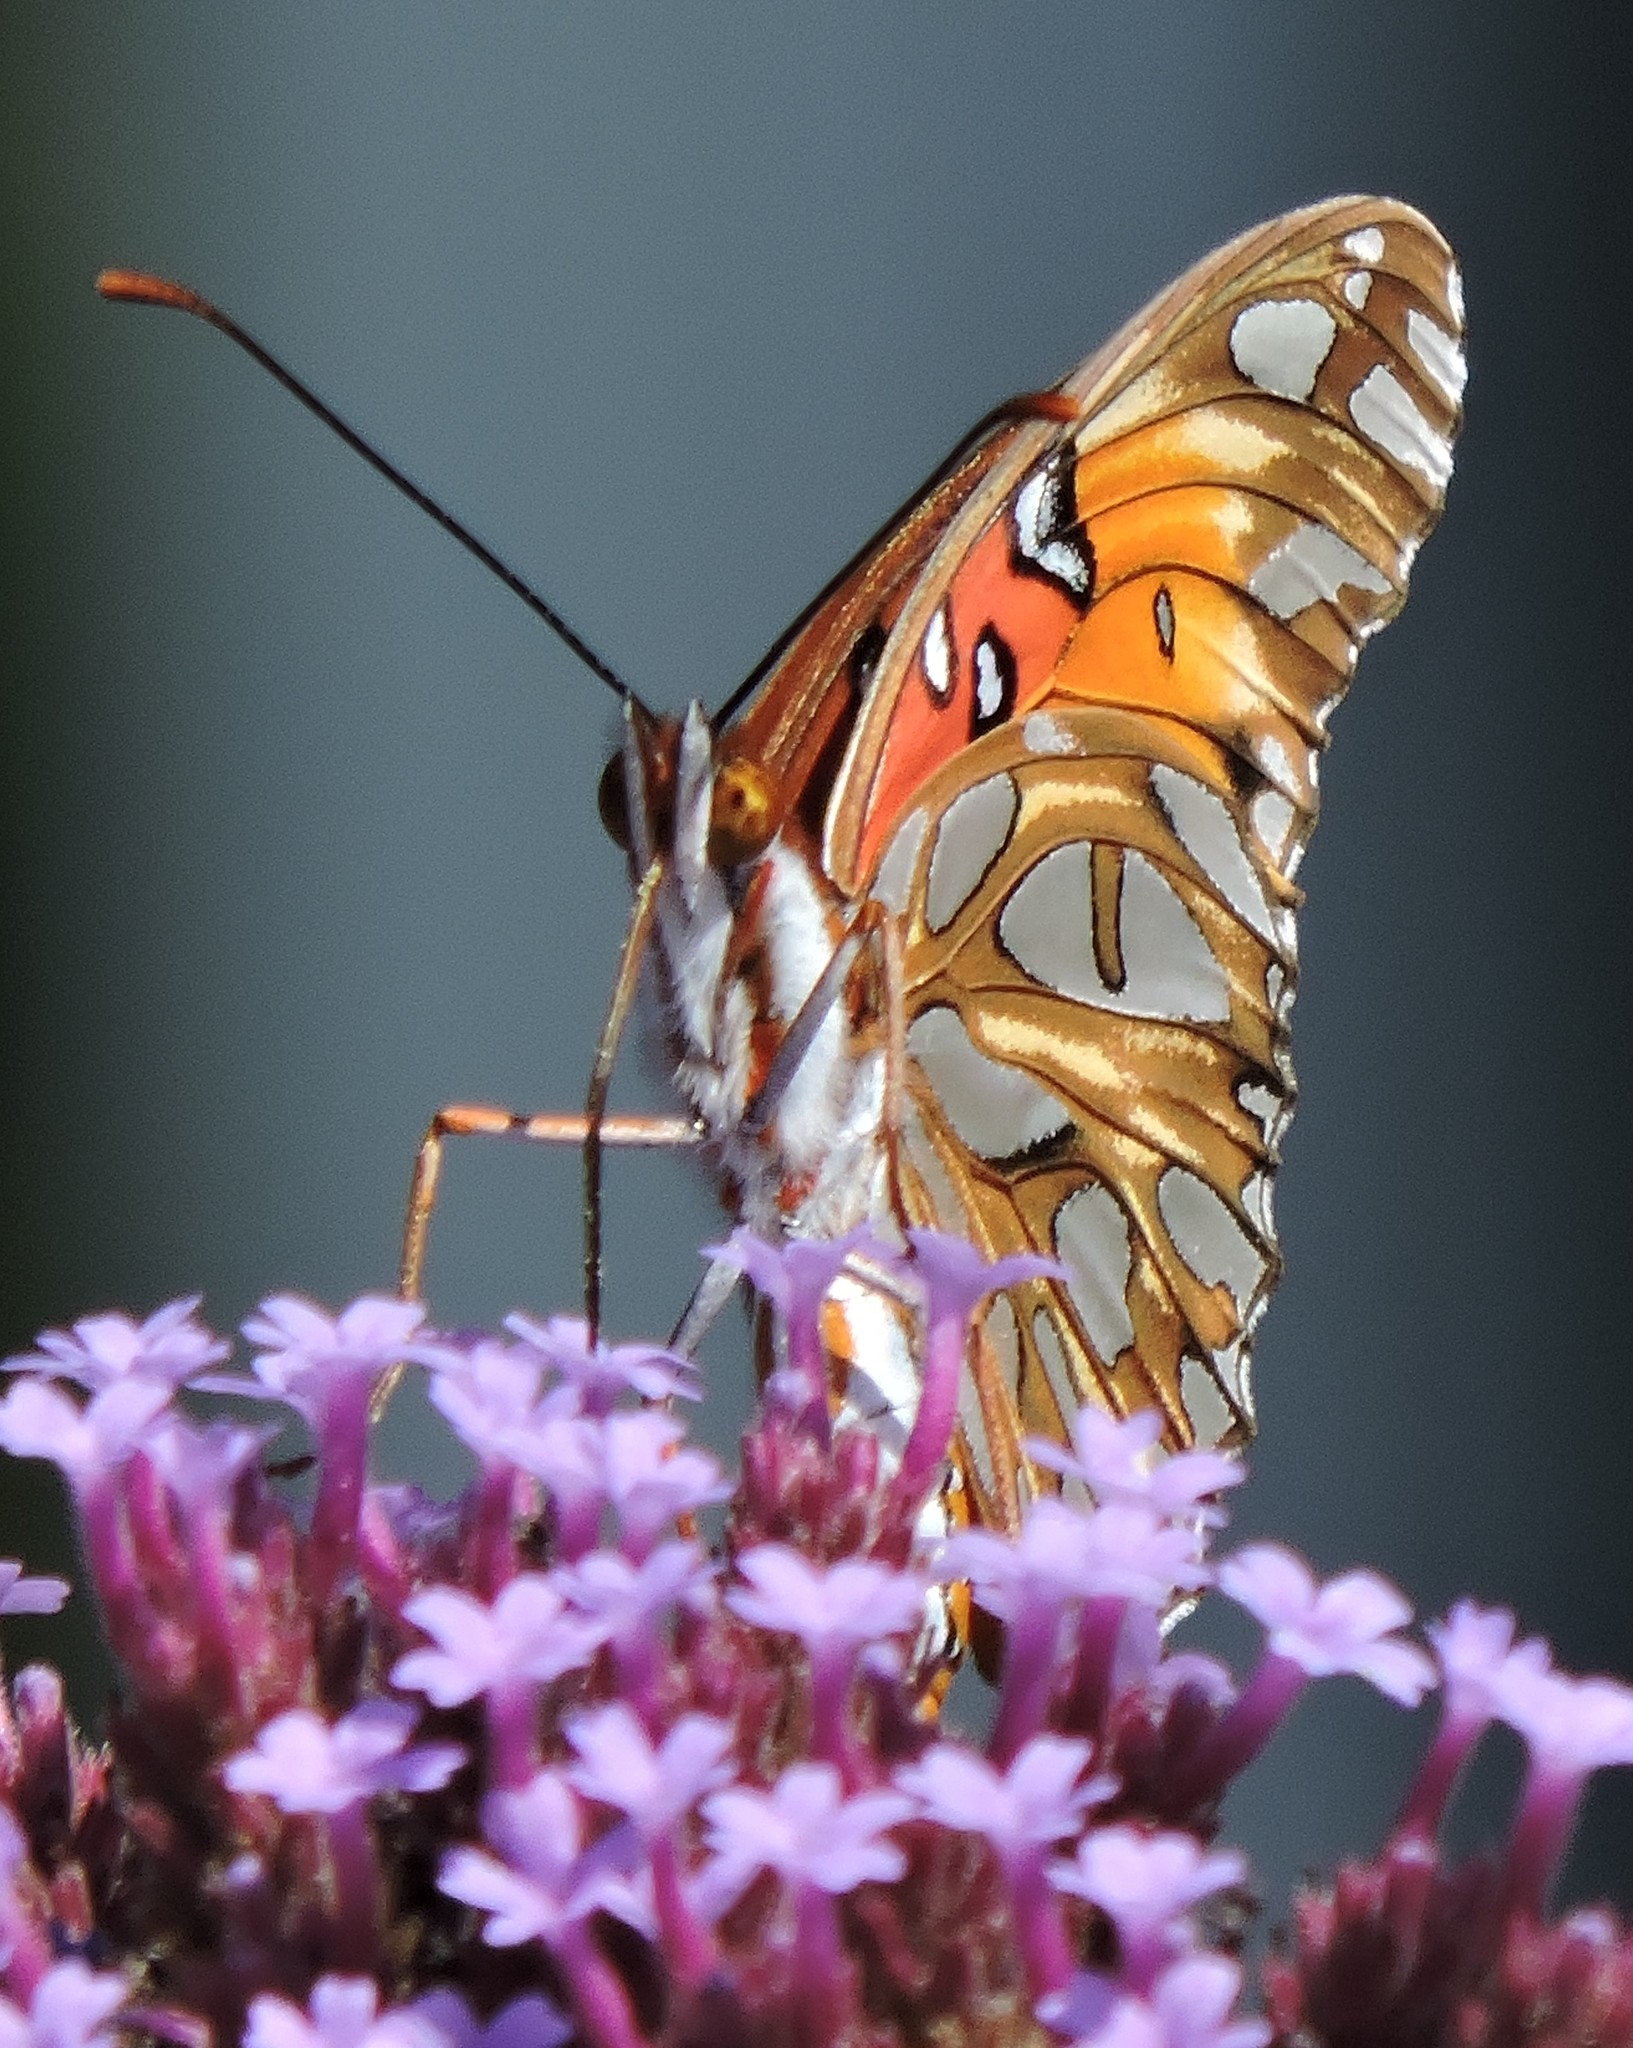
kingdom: Animalia
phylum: Arthropoda
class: Insecta
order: Lepidoptera
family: Nymphalidae
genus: Dione
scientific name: Dione vanillae
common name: Gulf fritillary
